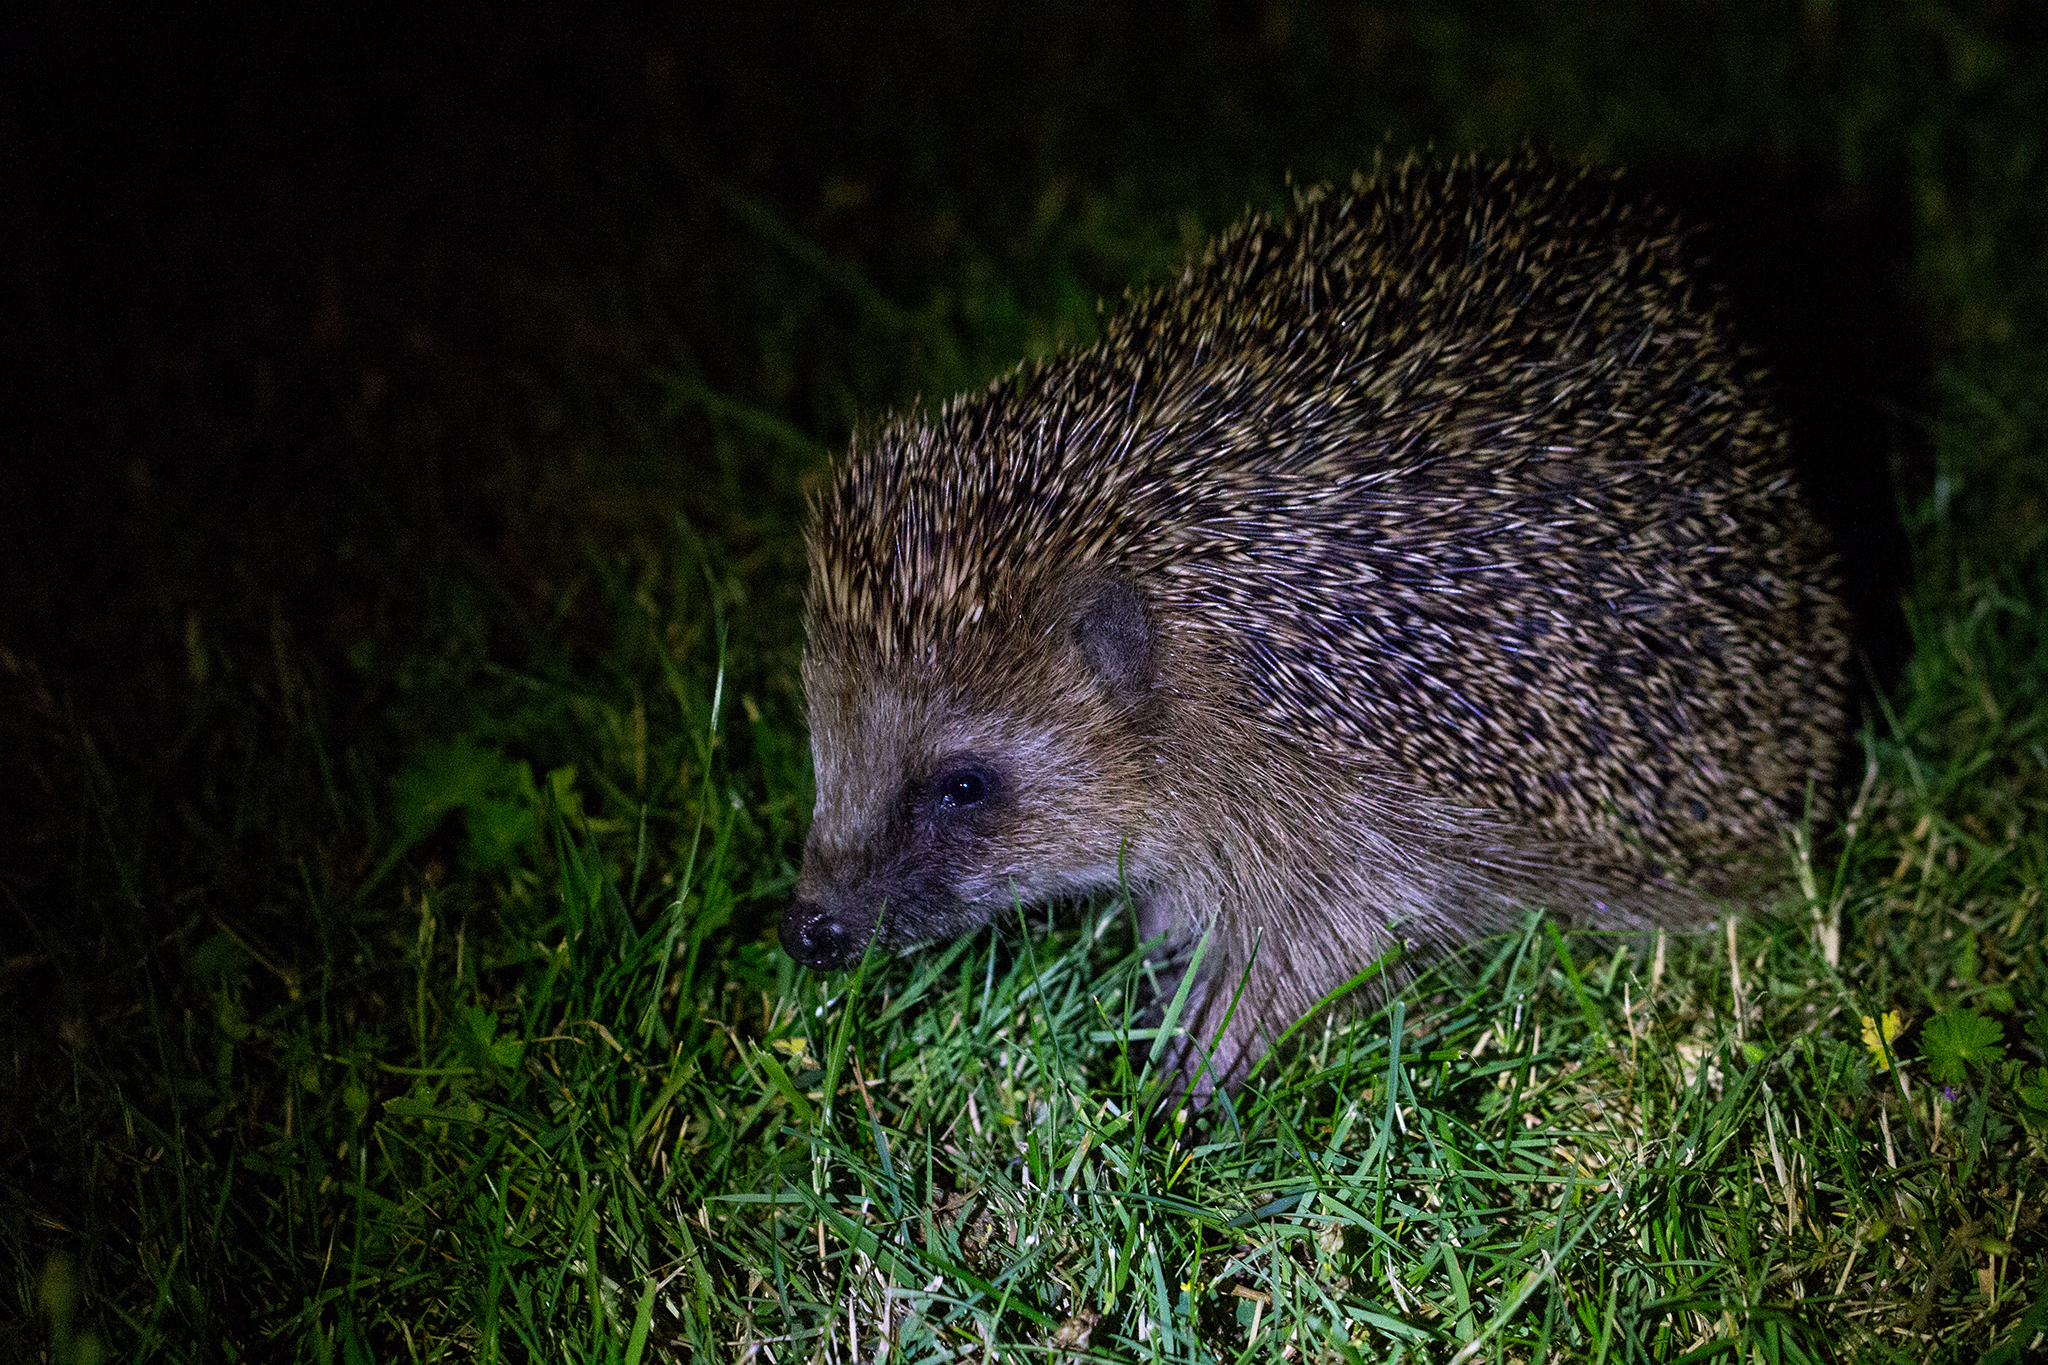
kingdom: Animalia
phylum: Chordata
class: Mammalia
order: Erinaceomorpha
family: Erinaceidae
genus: Erinaceus
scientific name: Erinaceus europaeus
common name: West european hedgehog
